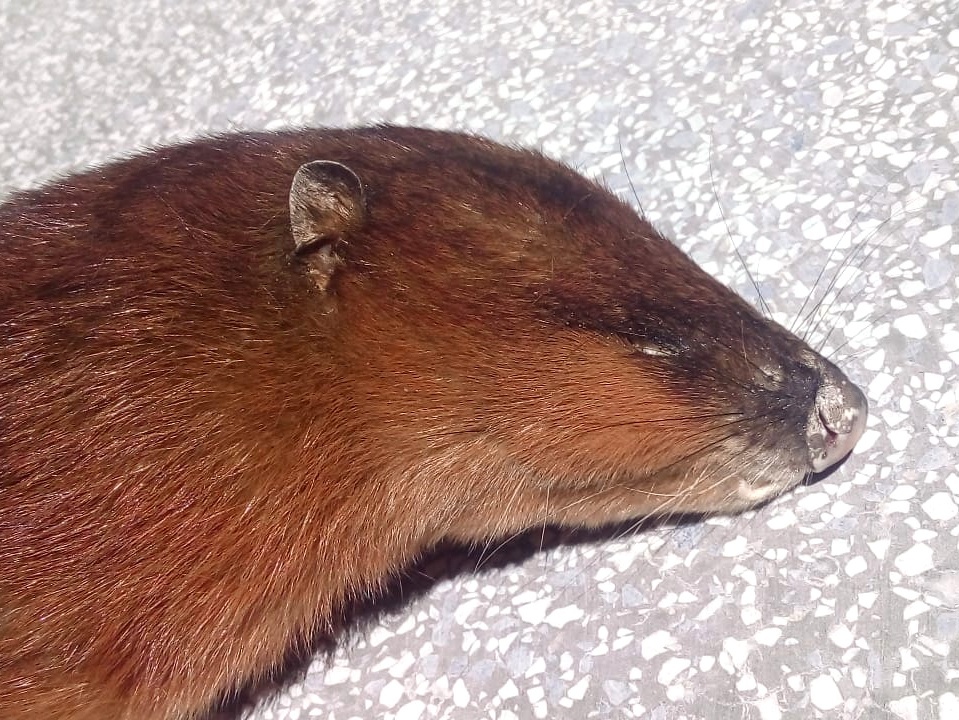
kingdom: Animalia
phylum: Chordata
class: Mammalia
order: Didelphimorphia
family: Didelphidae
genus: Lutreolina
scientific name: Lutreolina crassicaudata
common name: Lutrine opossum
